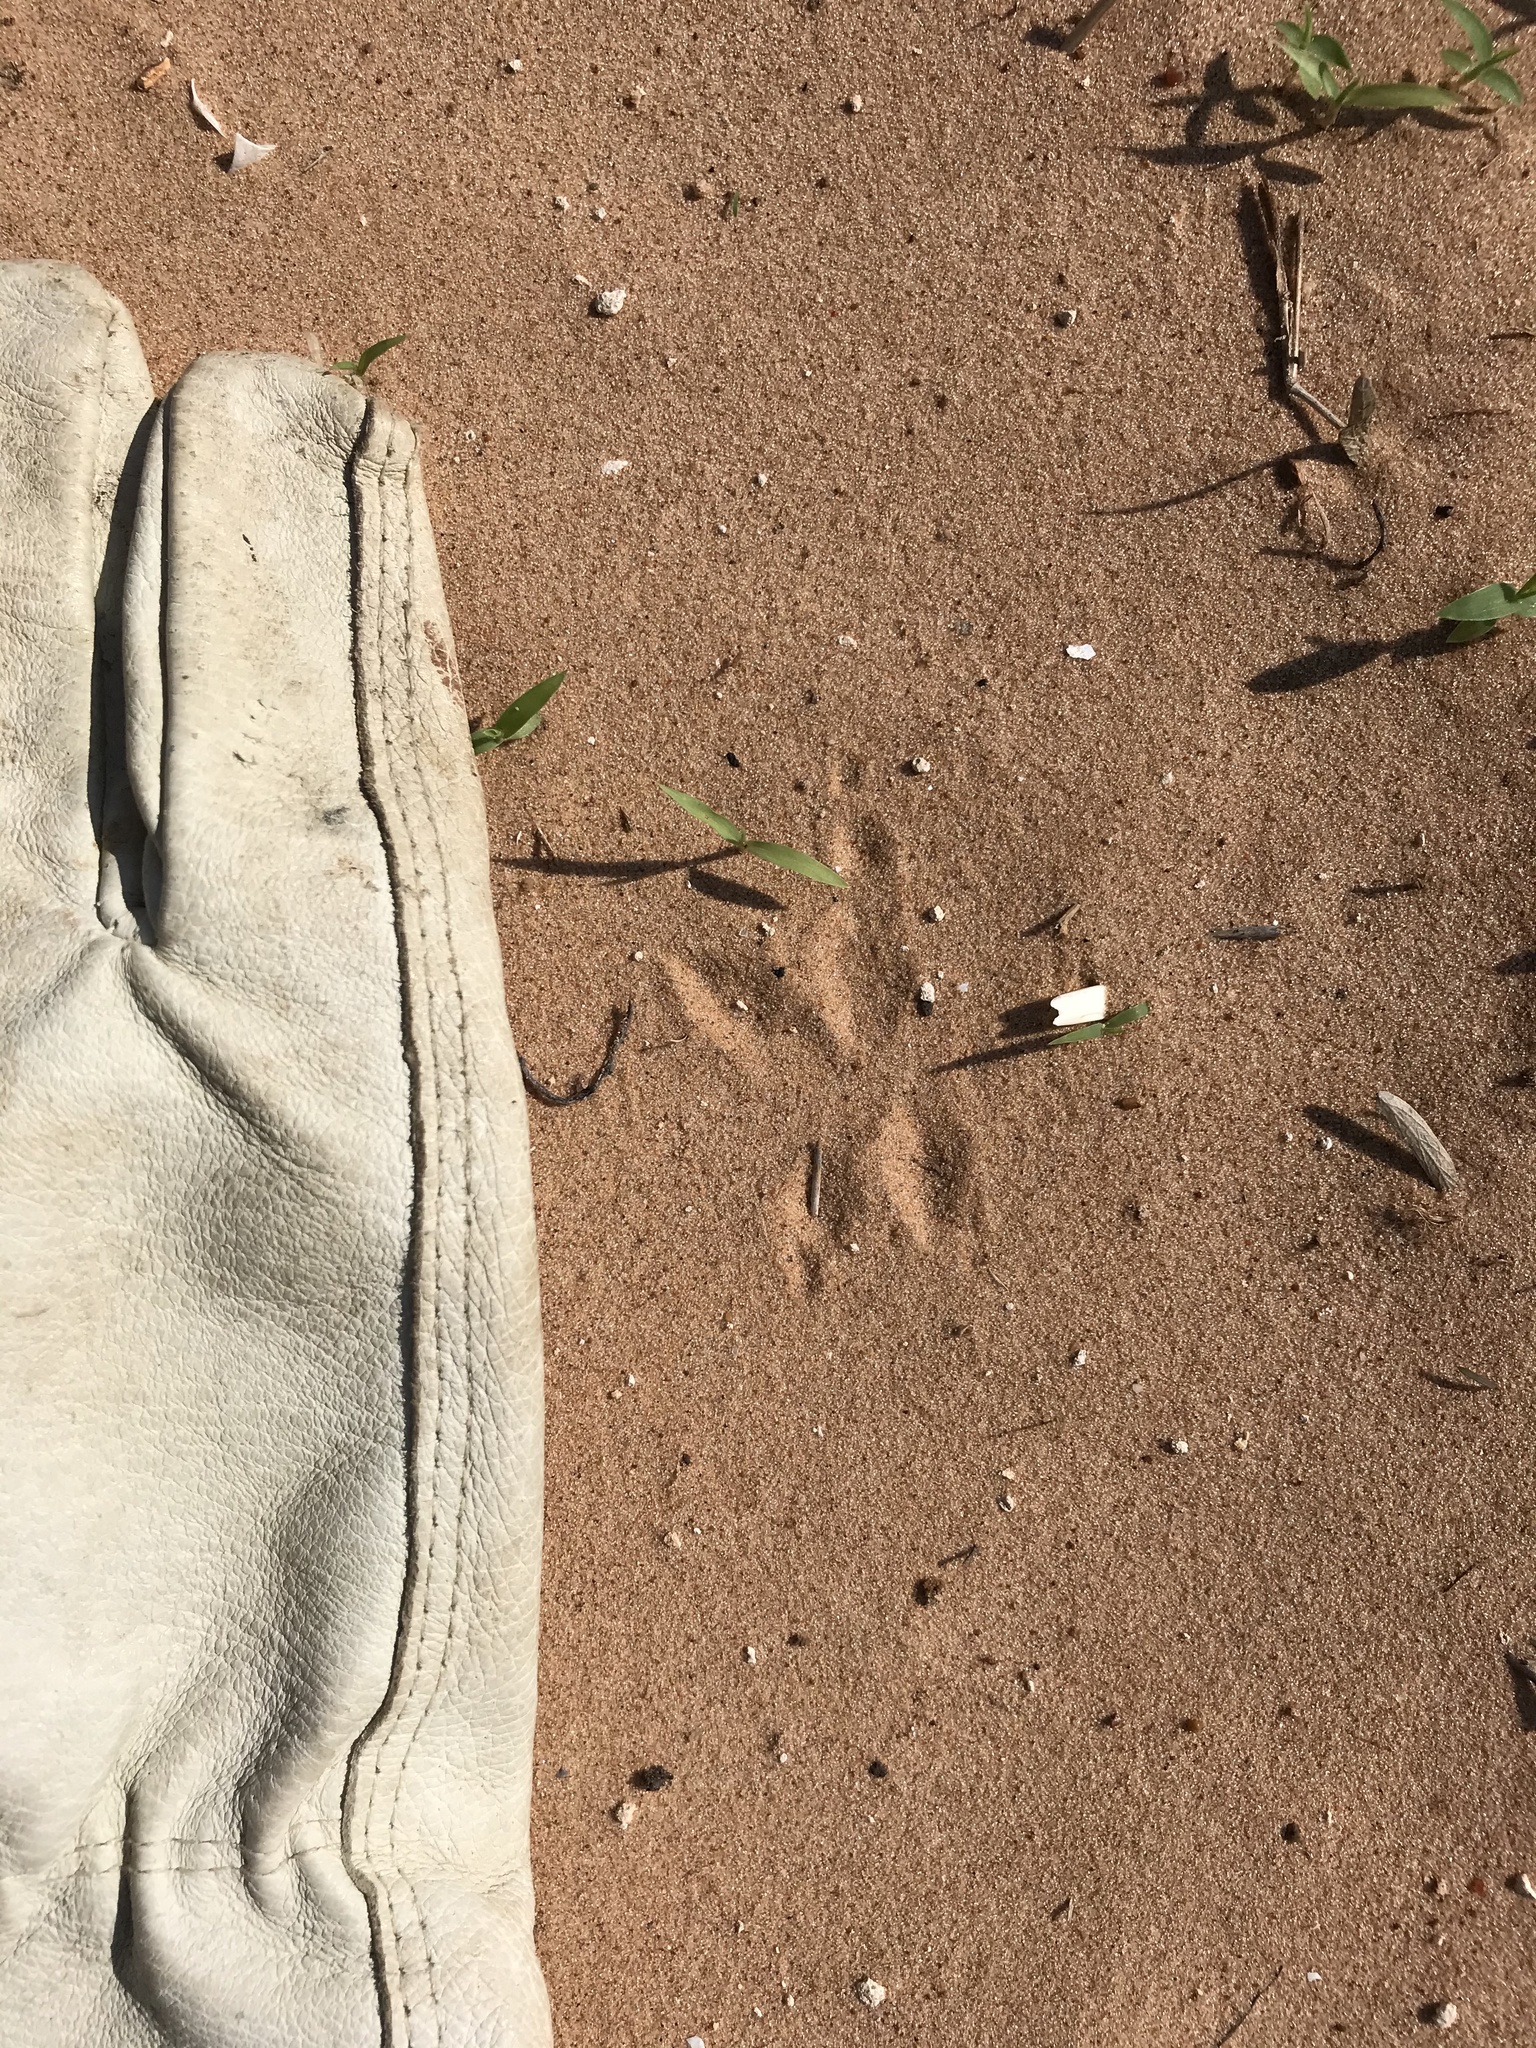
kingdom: Animalia
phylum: Chordata
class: Aves
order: Cuculiformes
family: Cuculidae
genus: Geococcyx
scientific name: Geococcyx californianus
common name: Greater roadrunner
